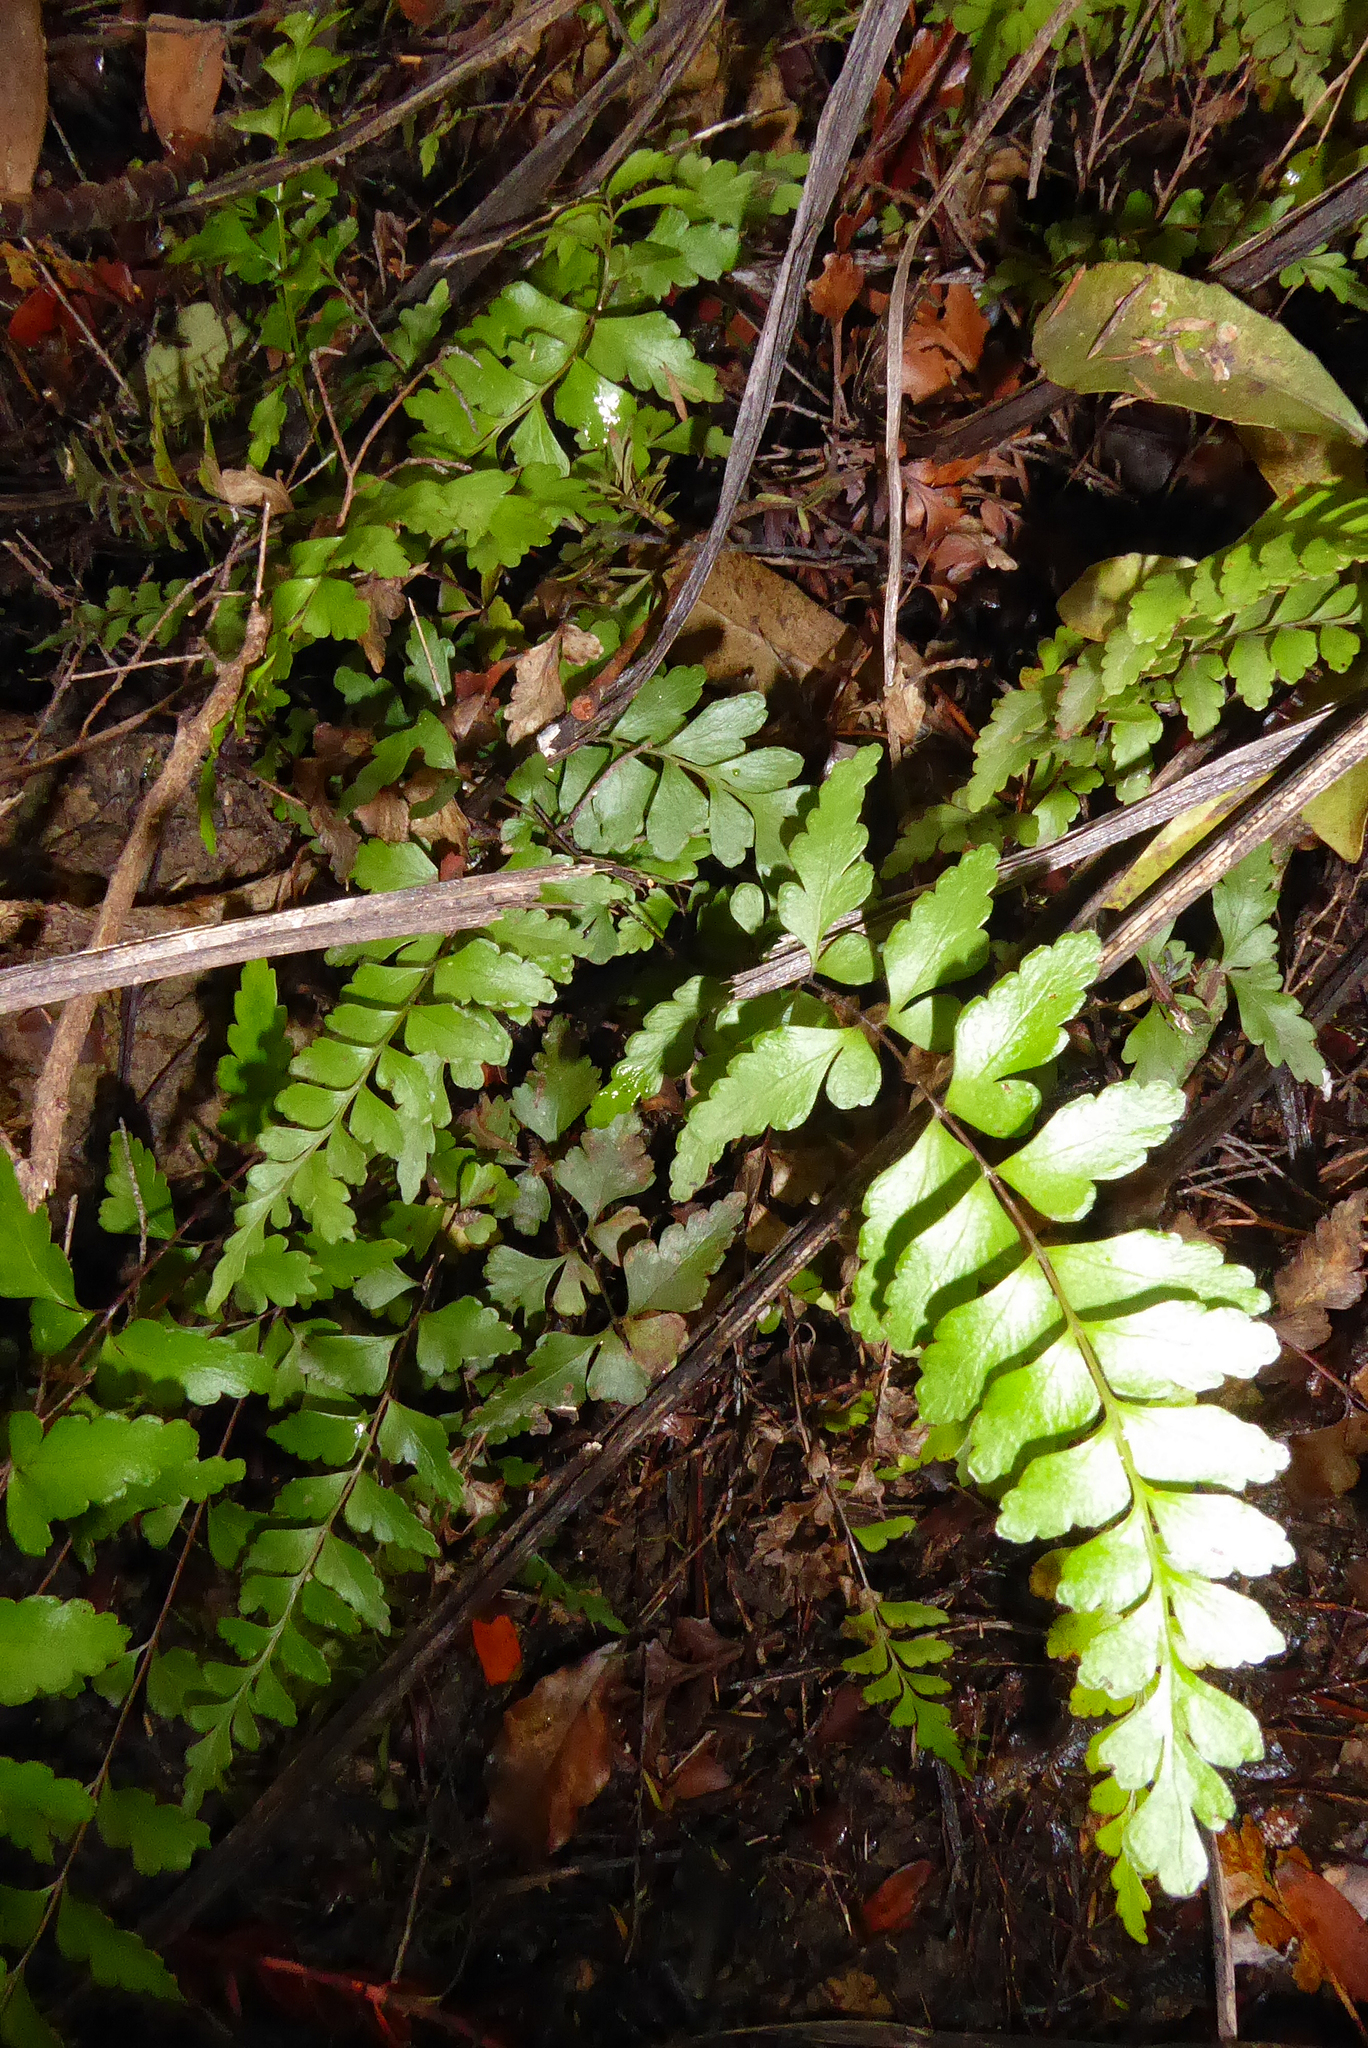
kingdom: Plantae
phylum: Tracheophyta
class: Polypodiopsida
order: Polypodiales
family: Lindsaeaceae
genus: Lindsaea
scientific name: Lindsaea trichomanoides
